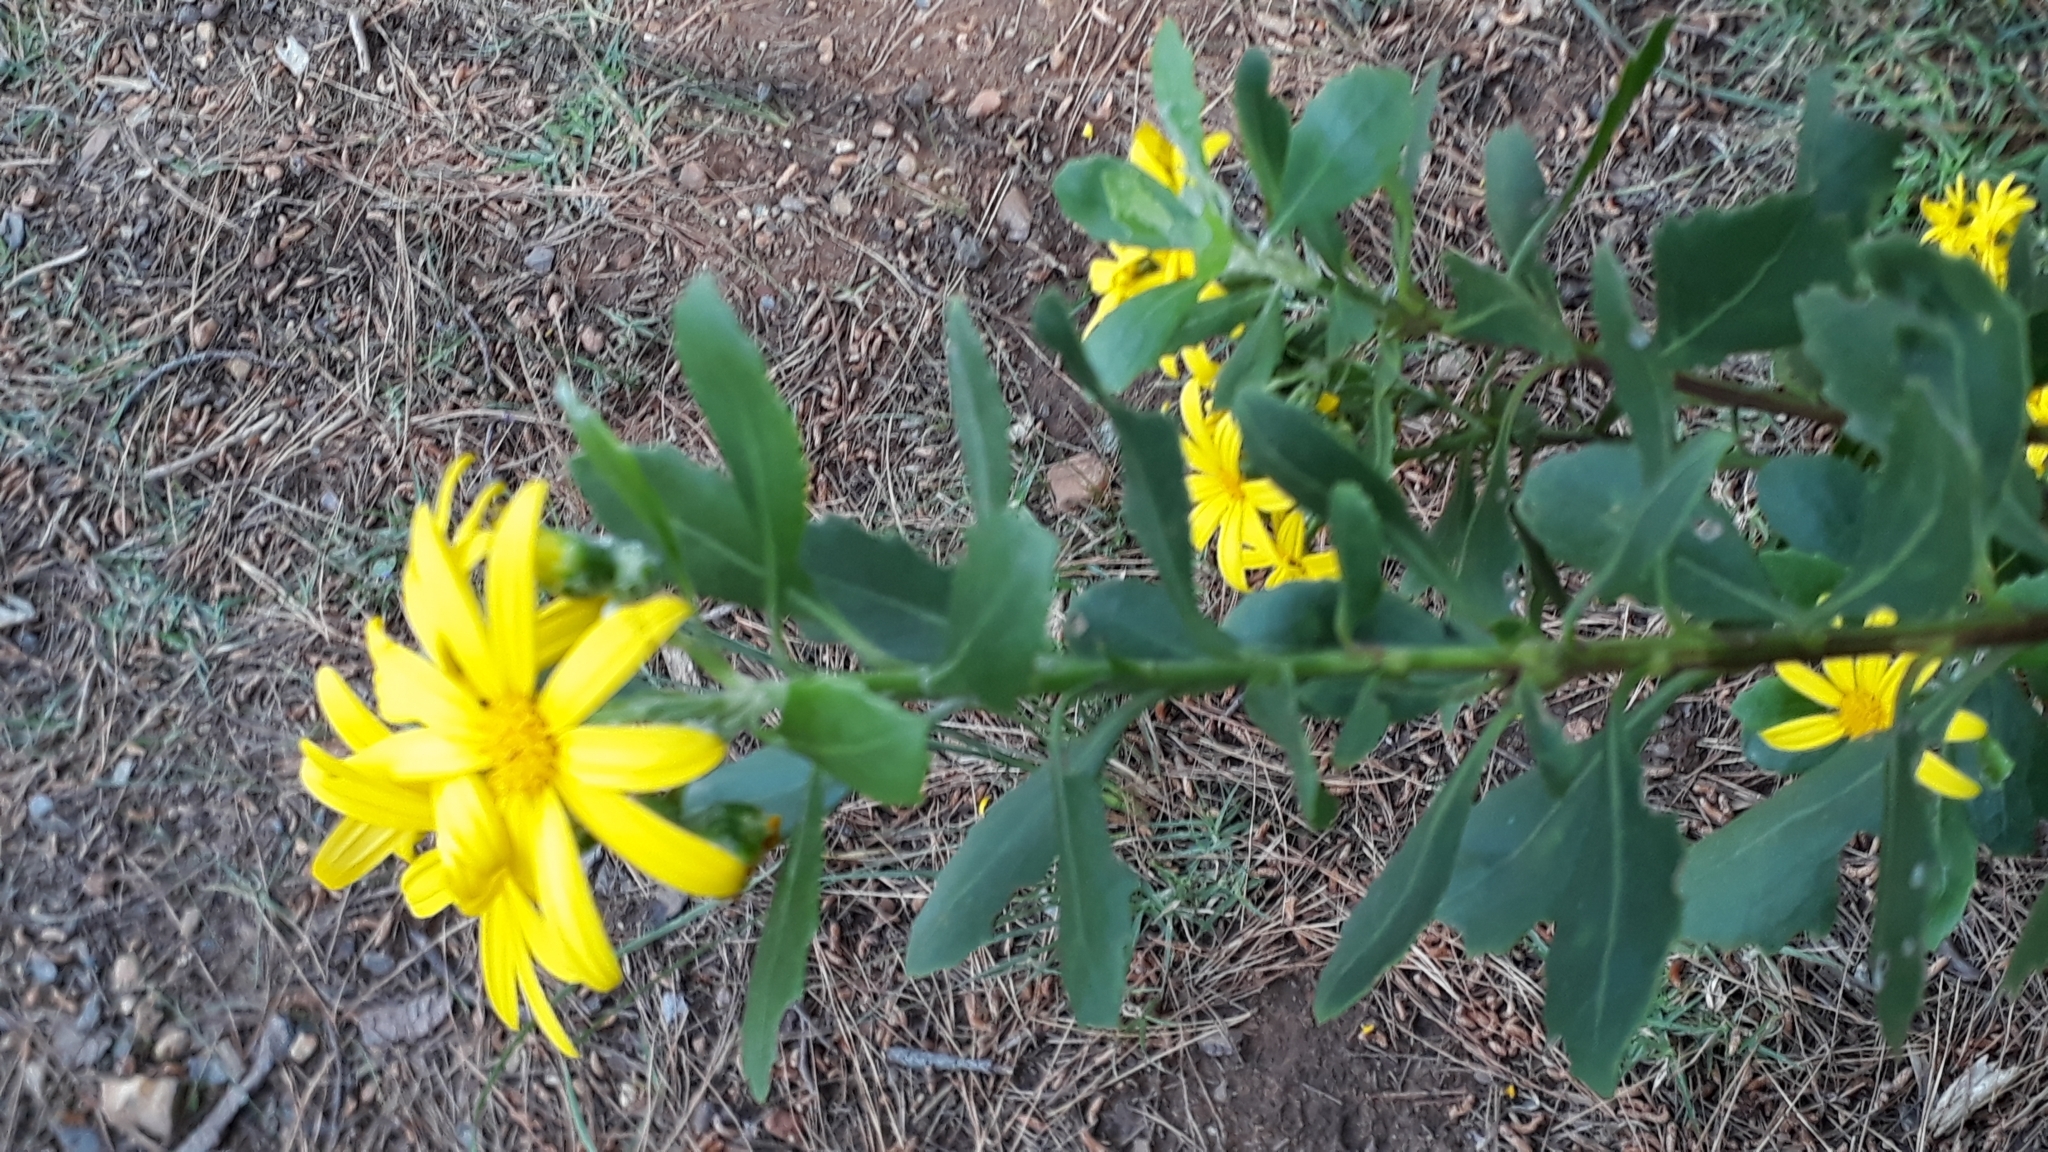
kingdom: Plantae
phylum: Tracheophyta
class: Magnoliopsida
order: Asterales
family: Asteraceae
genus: Osteospermum
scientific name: Osteospermum moniliferum
